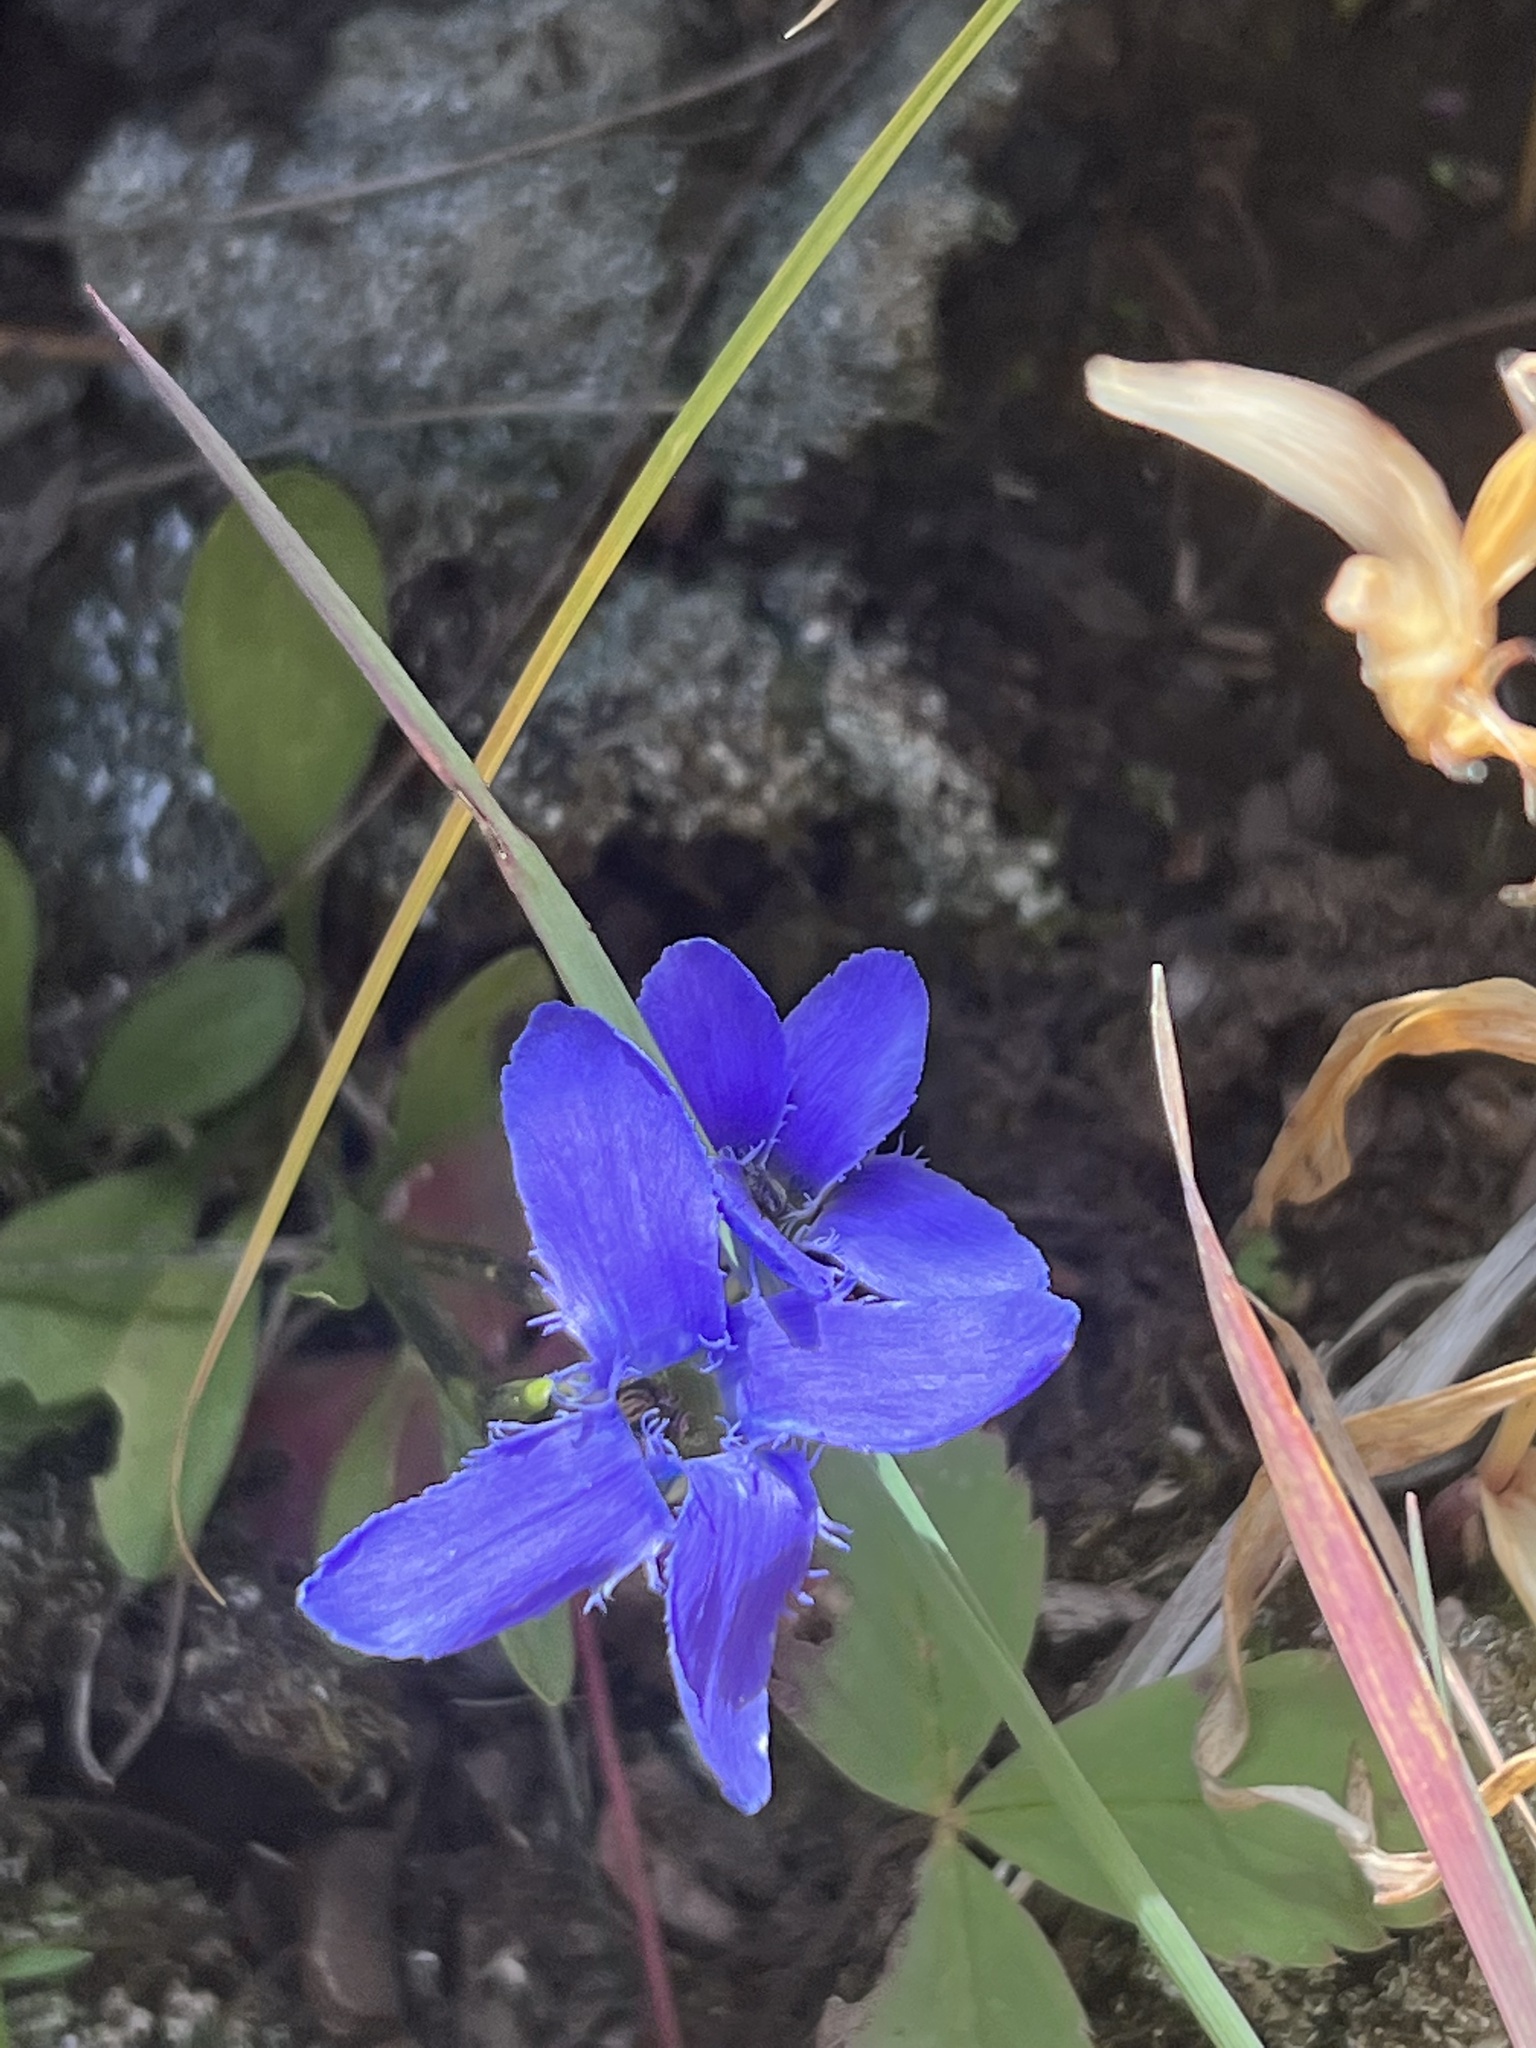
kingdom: Plantae
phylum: Tracheophyta
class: Magnoliopsida
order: Gentianales
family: Gentianaceae
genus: Gentianopsis
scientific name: Gentianopsis barbellata
